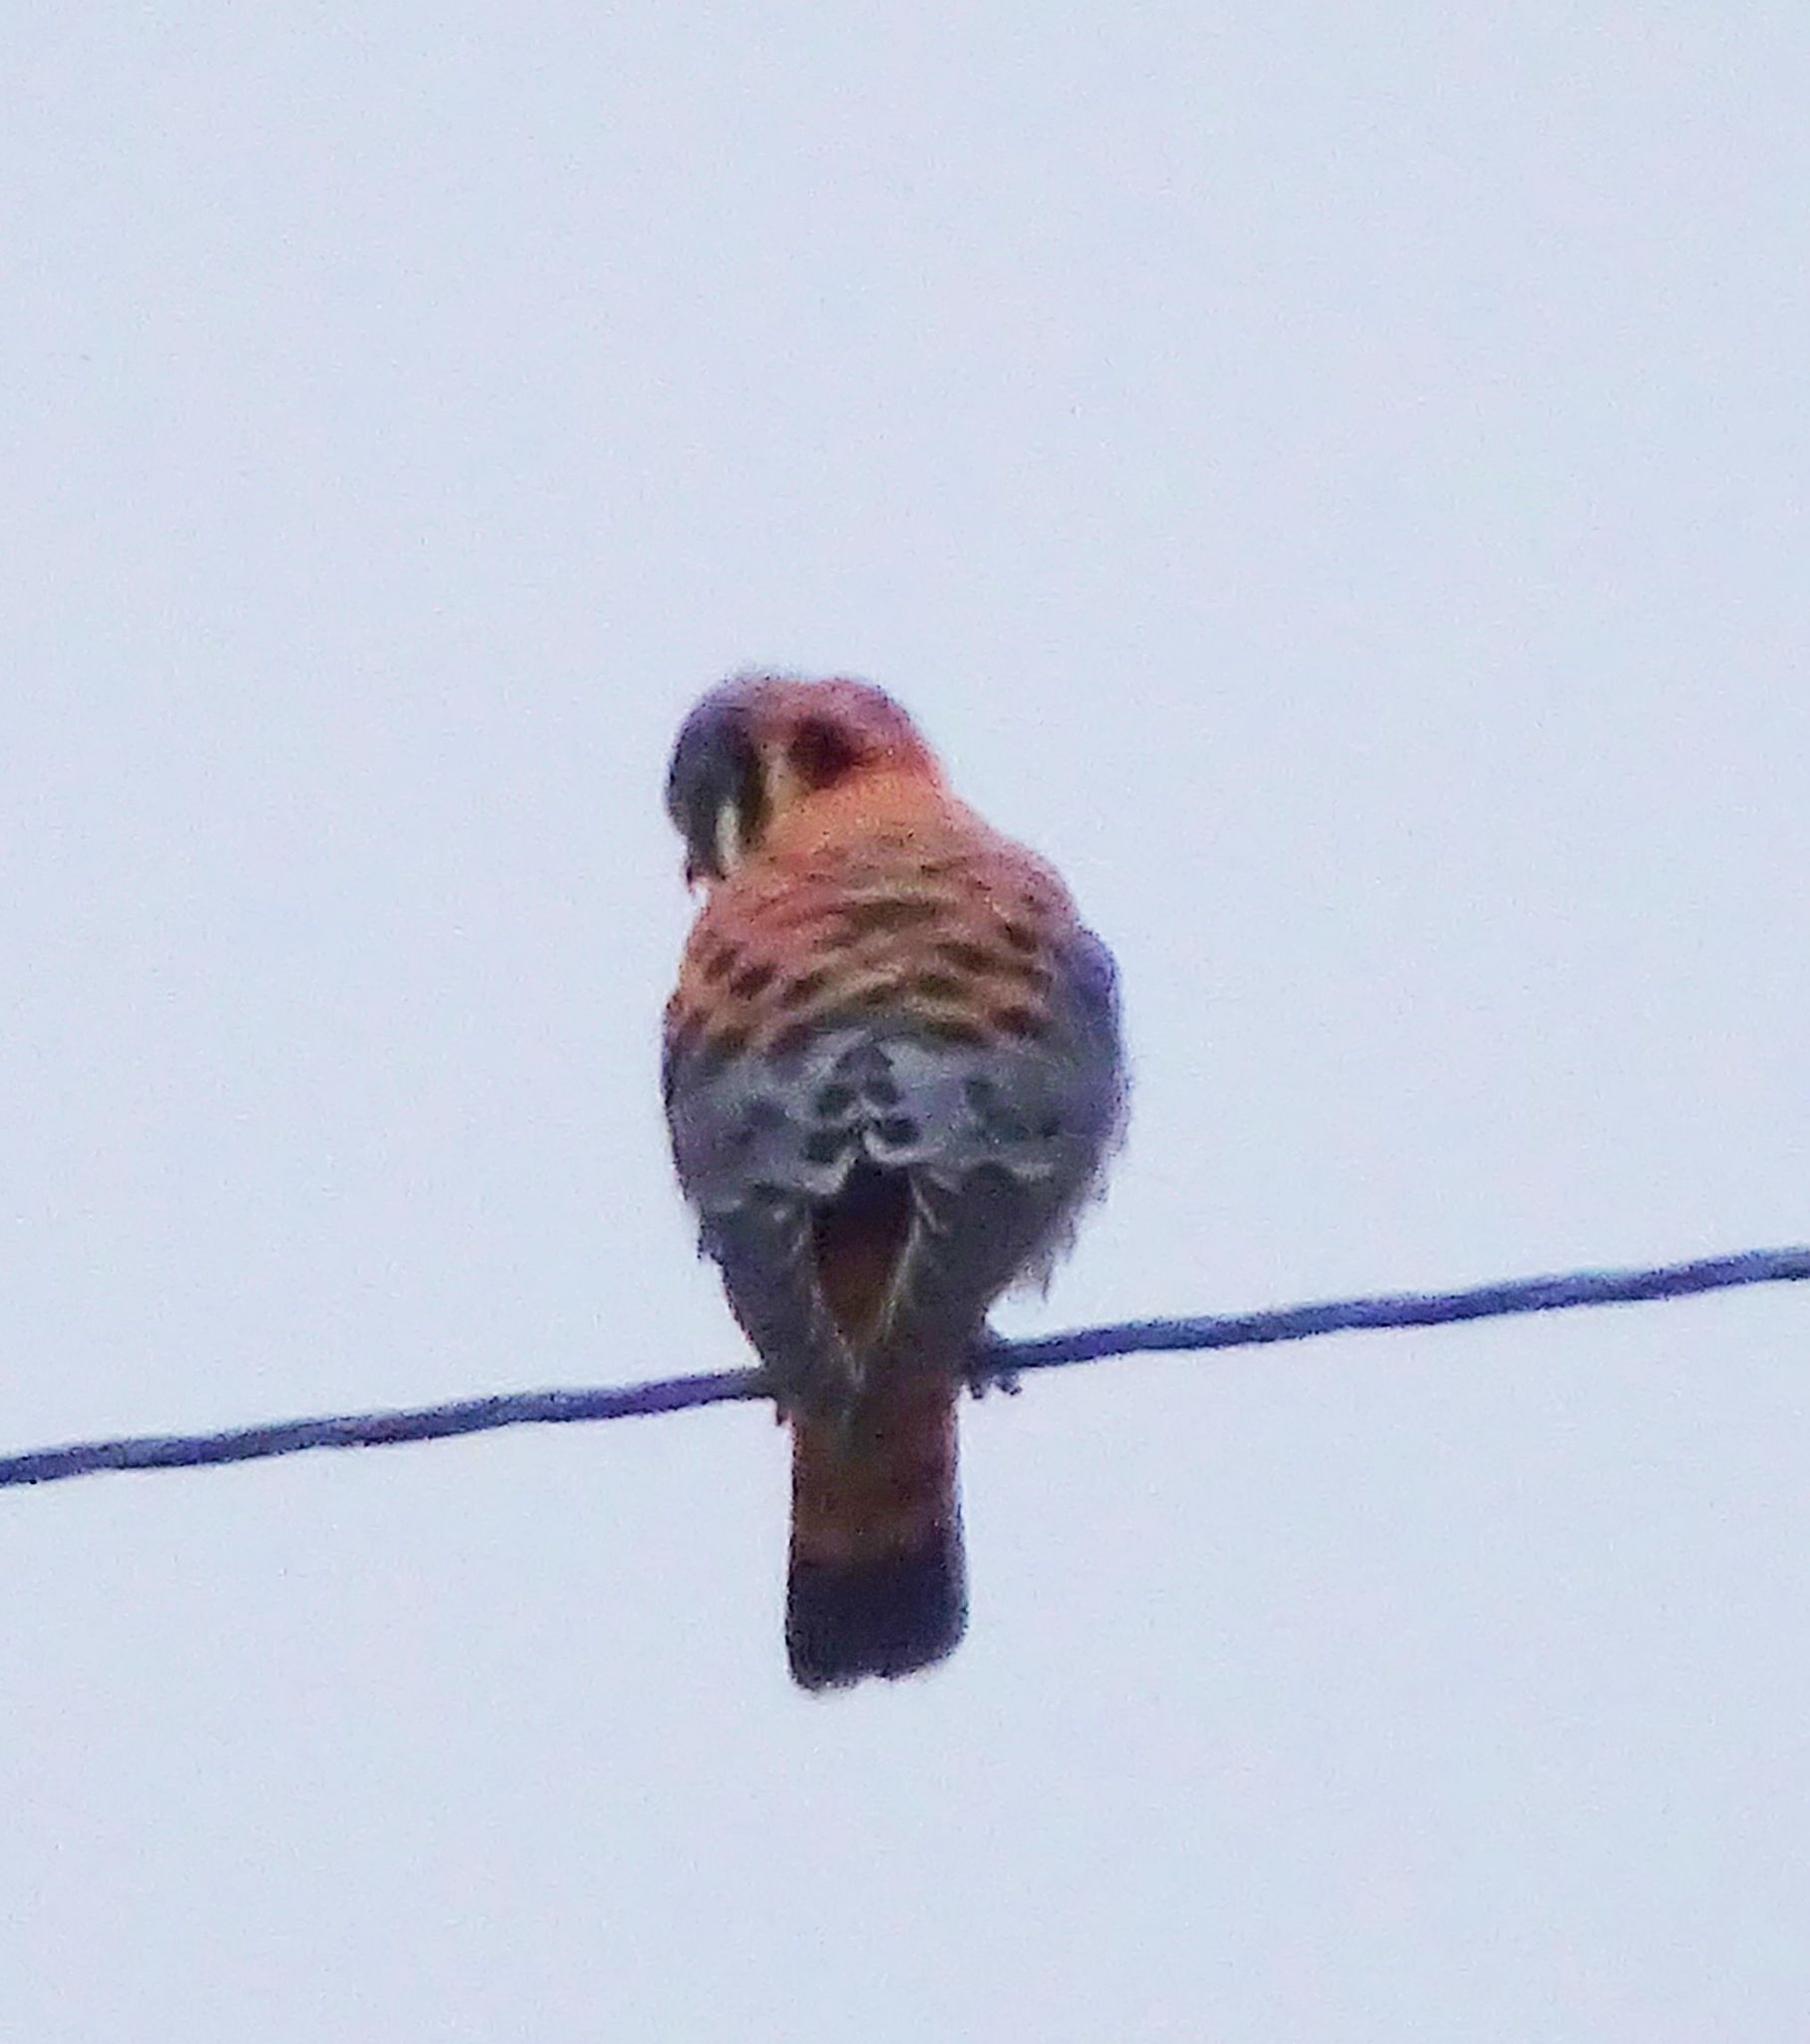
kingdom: Animalia
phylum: Chordata
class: Aves
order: Falconiformes
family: Falconidae
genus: Falco
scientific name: Falco sparverius
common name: American kestrel
